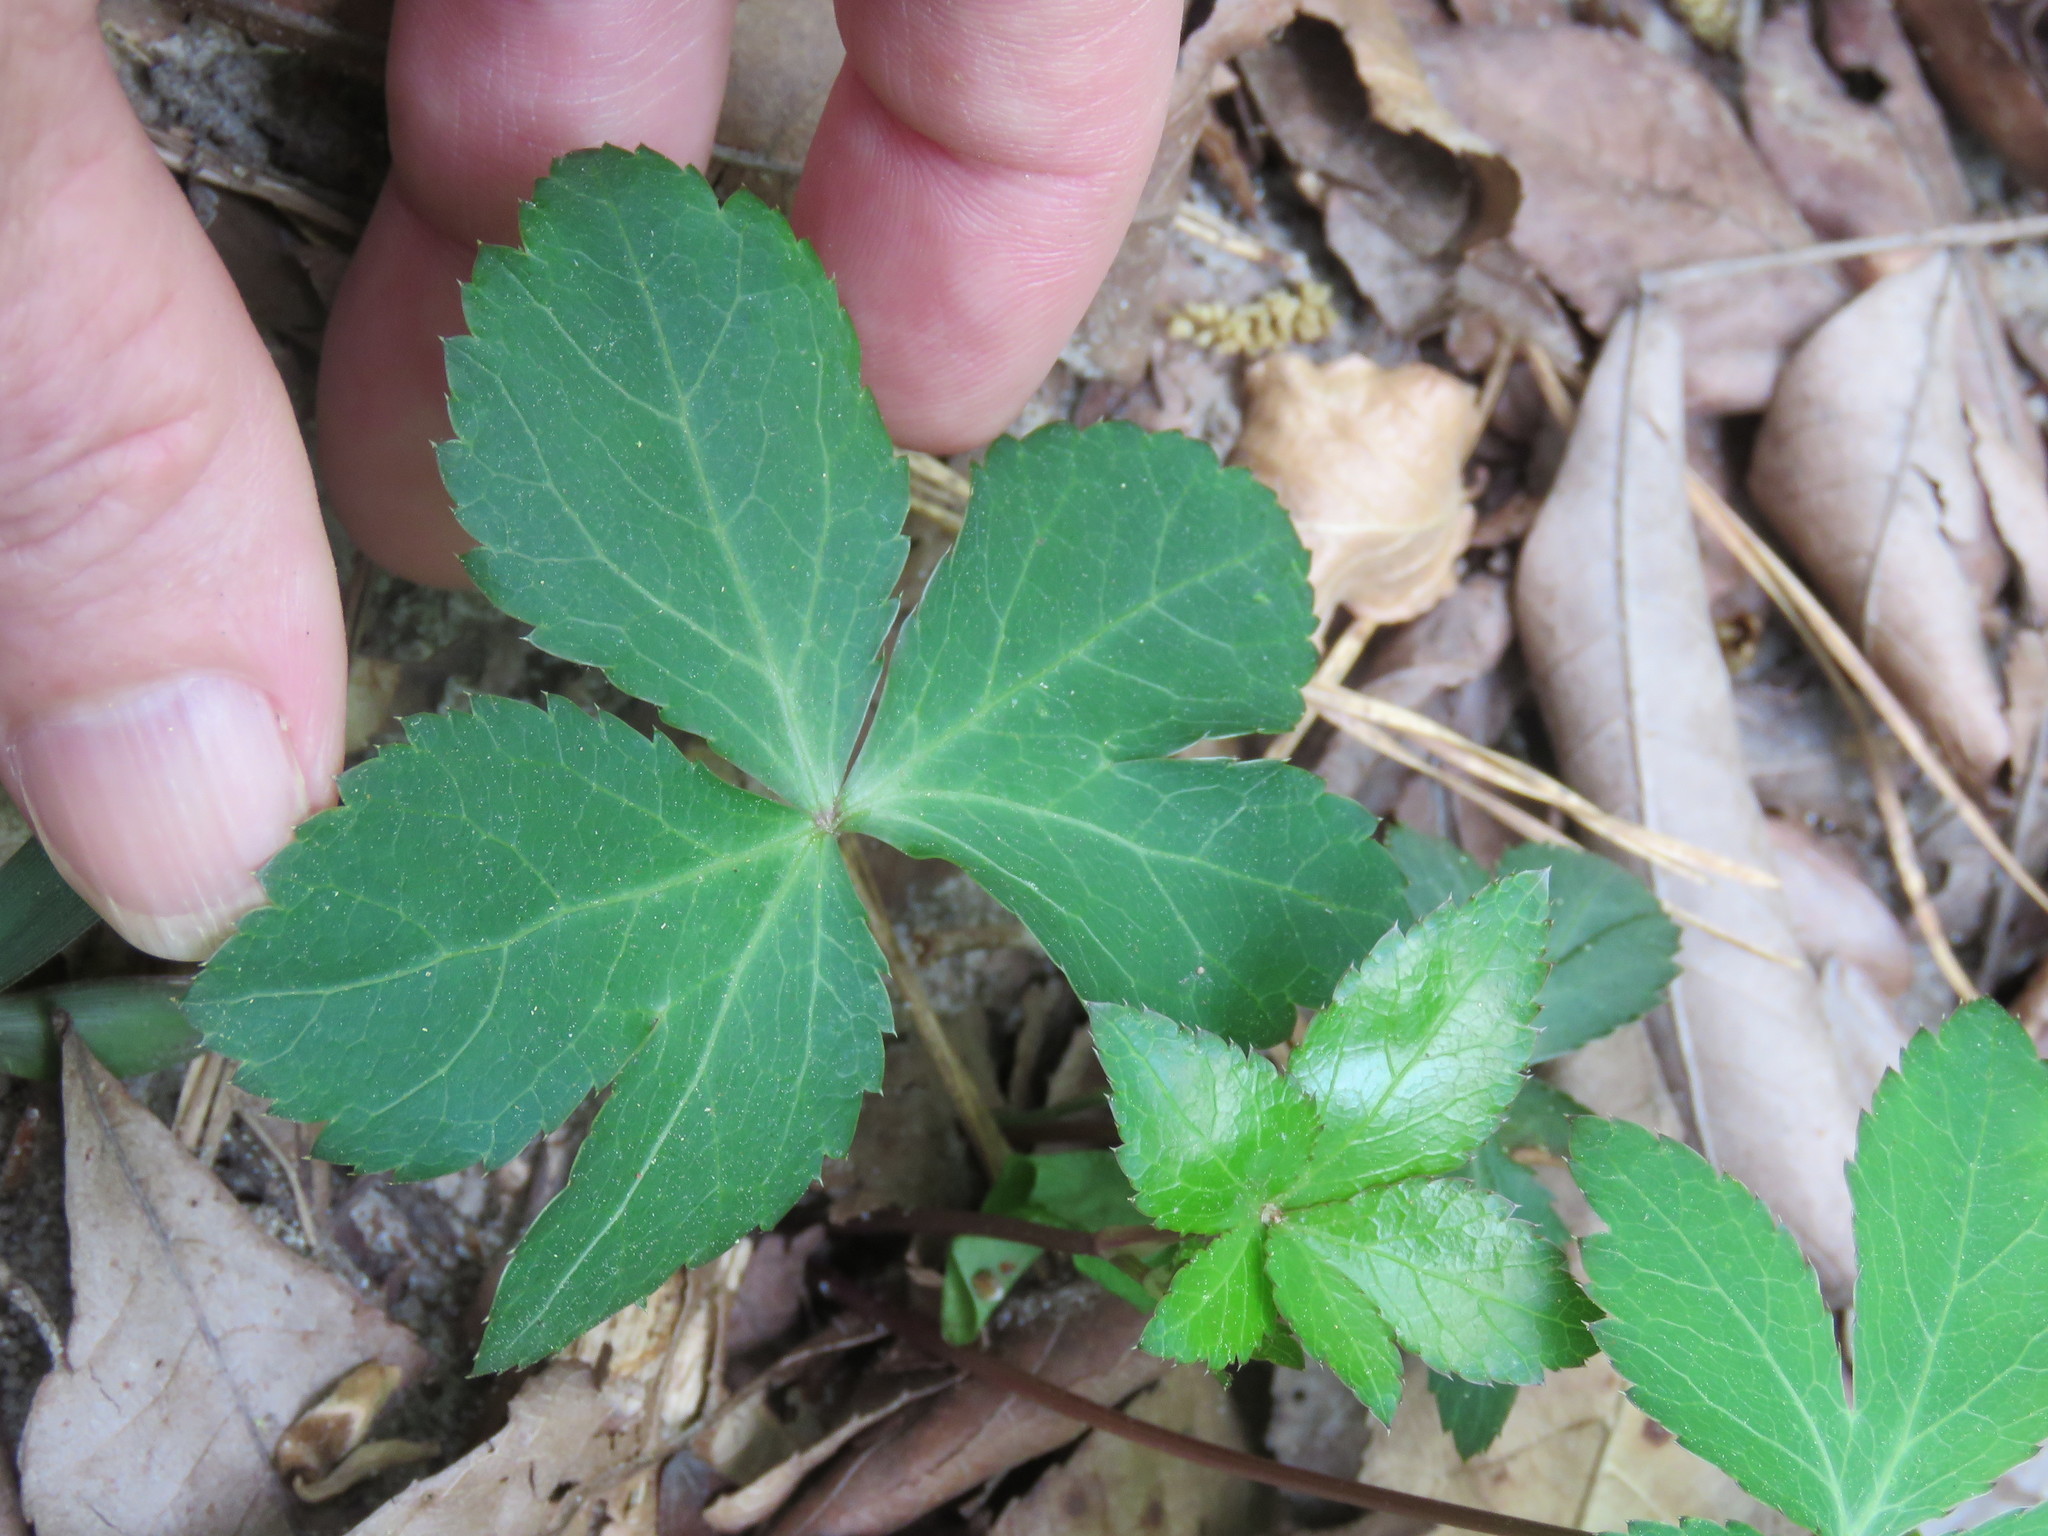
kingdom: Plantae
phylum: Tracheophyta
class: Magnoliopsida
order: Apiales
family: Apiaceae
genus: Sanicula
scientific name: Sanicula smallii
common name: Small's black snakeroot
